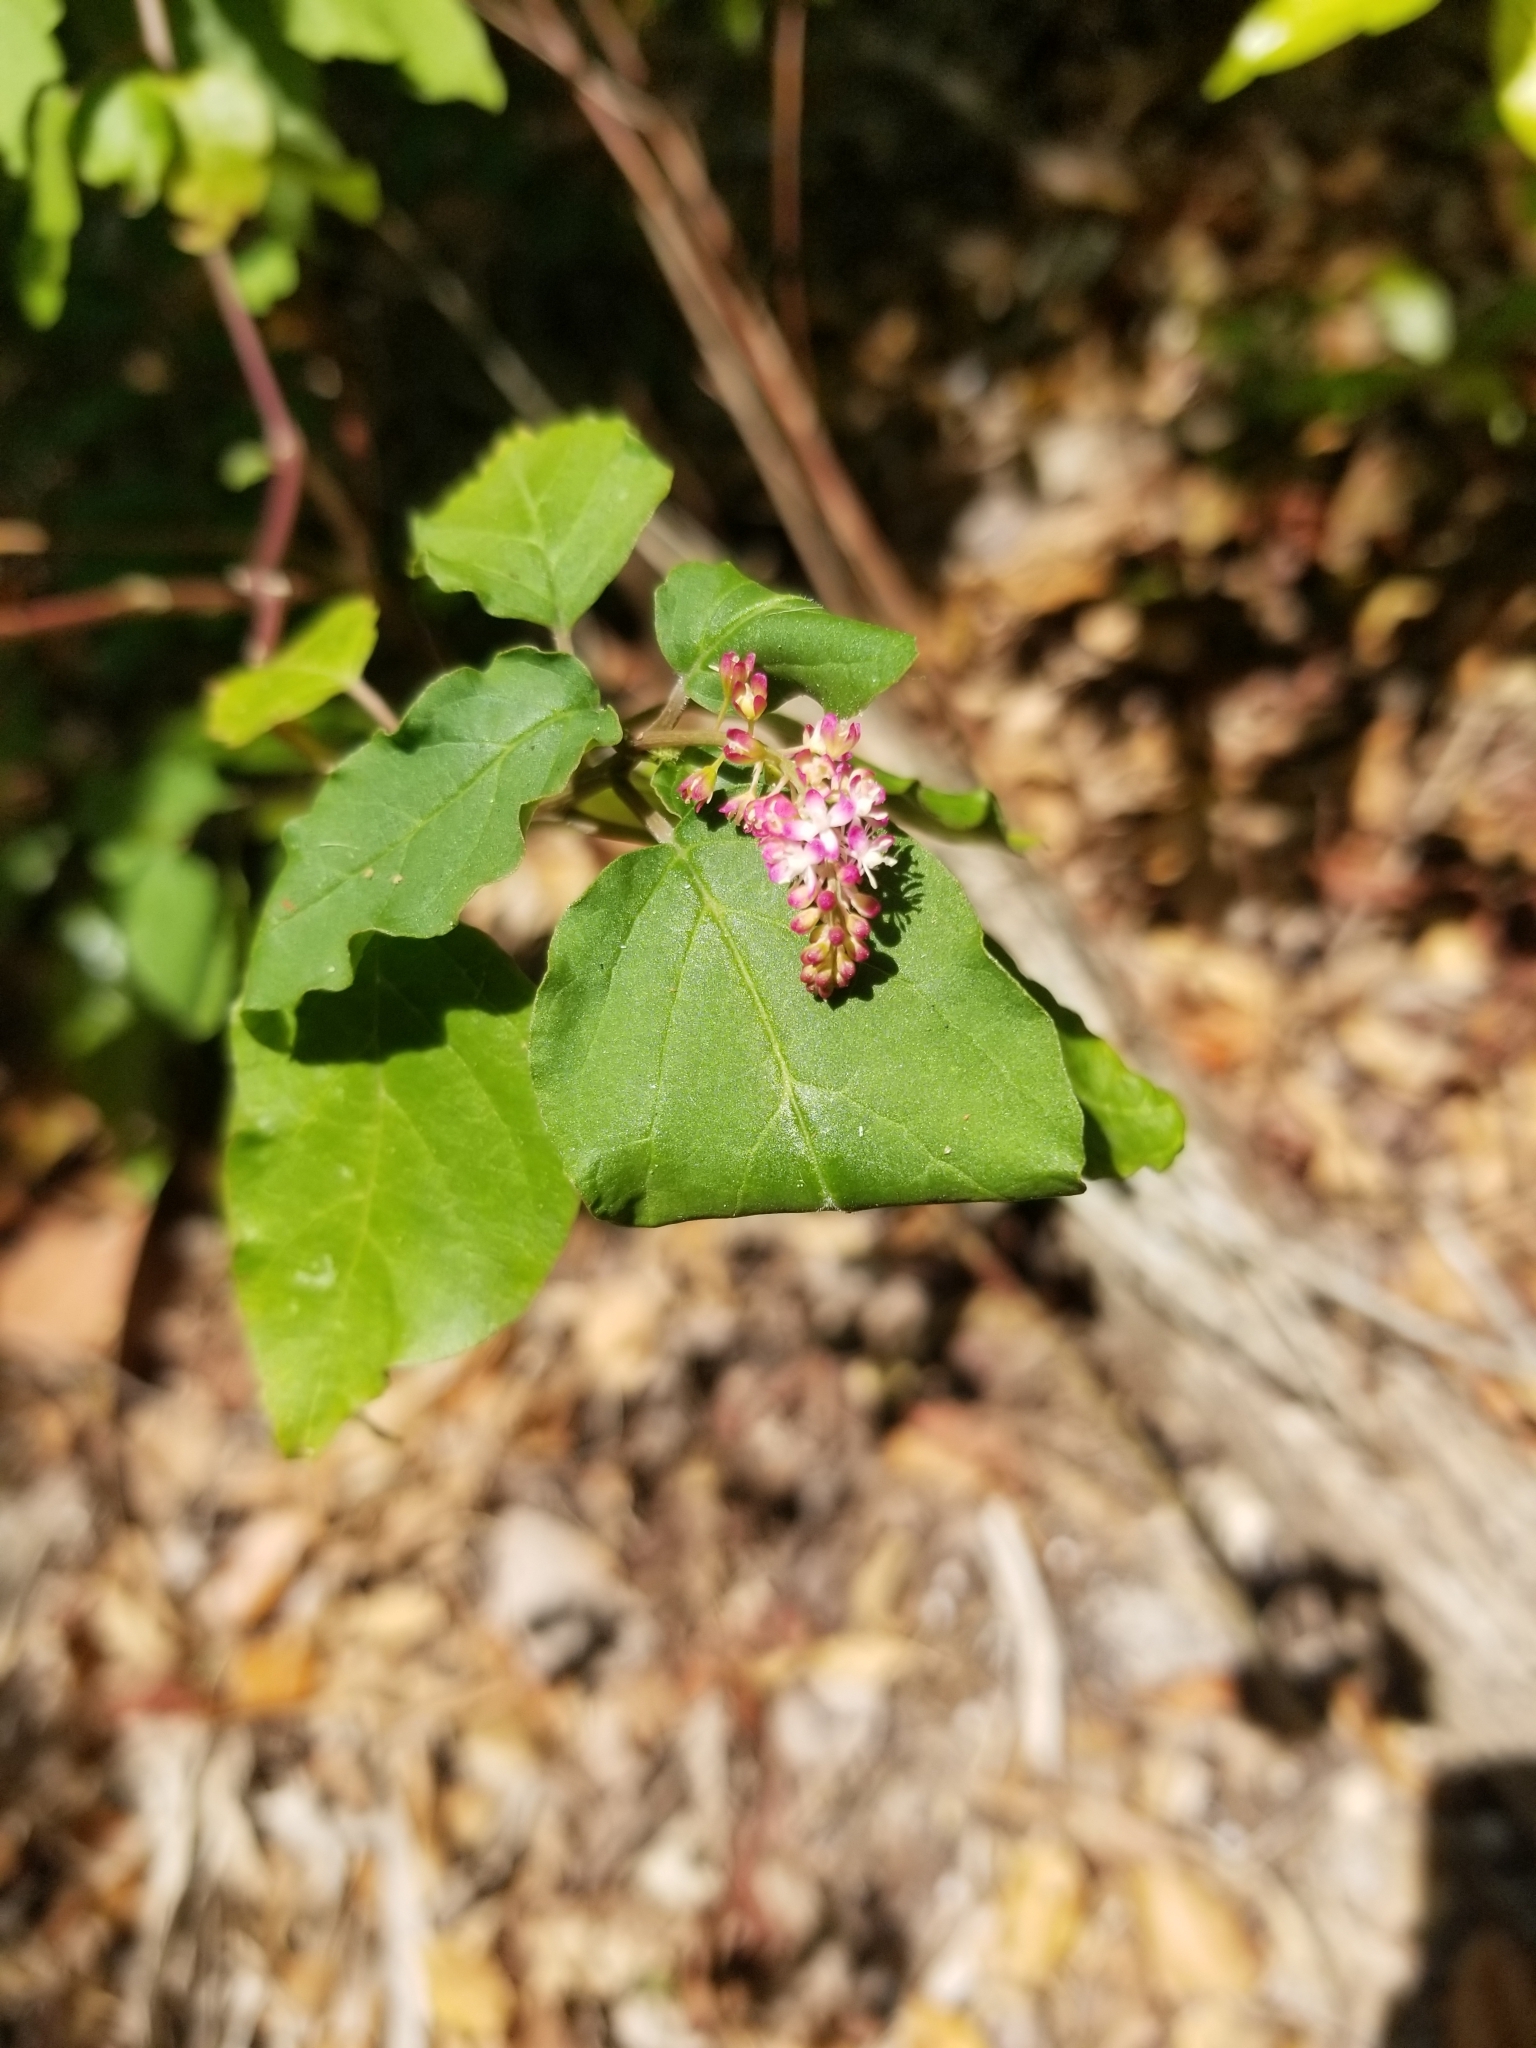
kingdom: Plantae
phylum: Tracheophyta
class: Magnoliopsida
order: Caryophyllales
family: Phytolaccaceae
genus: Rivina
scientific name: Rivina humilis
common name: Rougeplant
